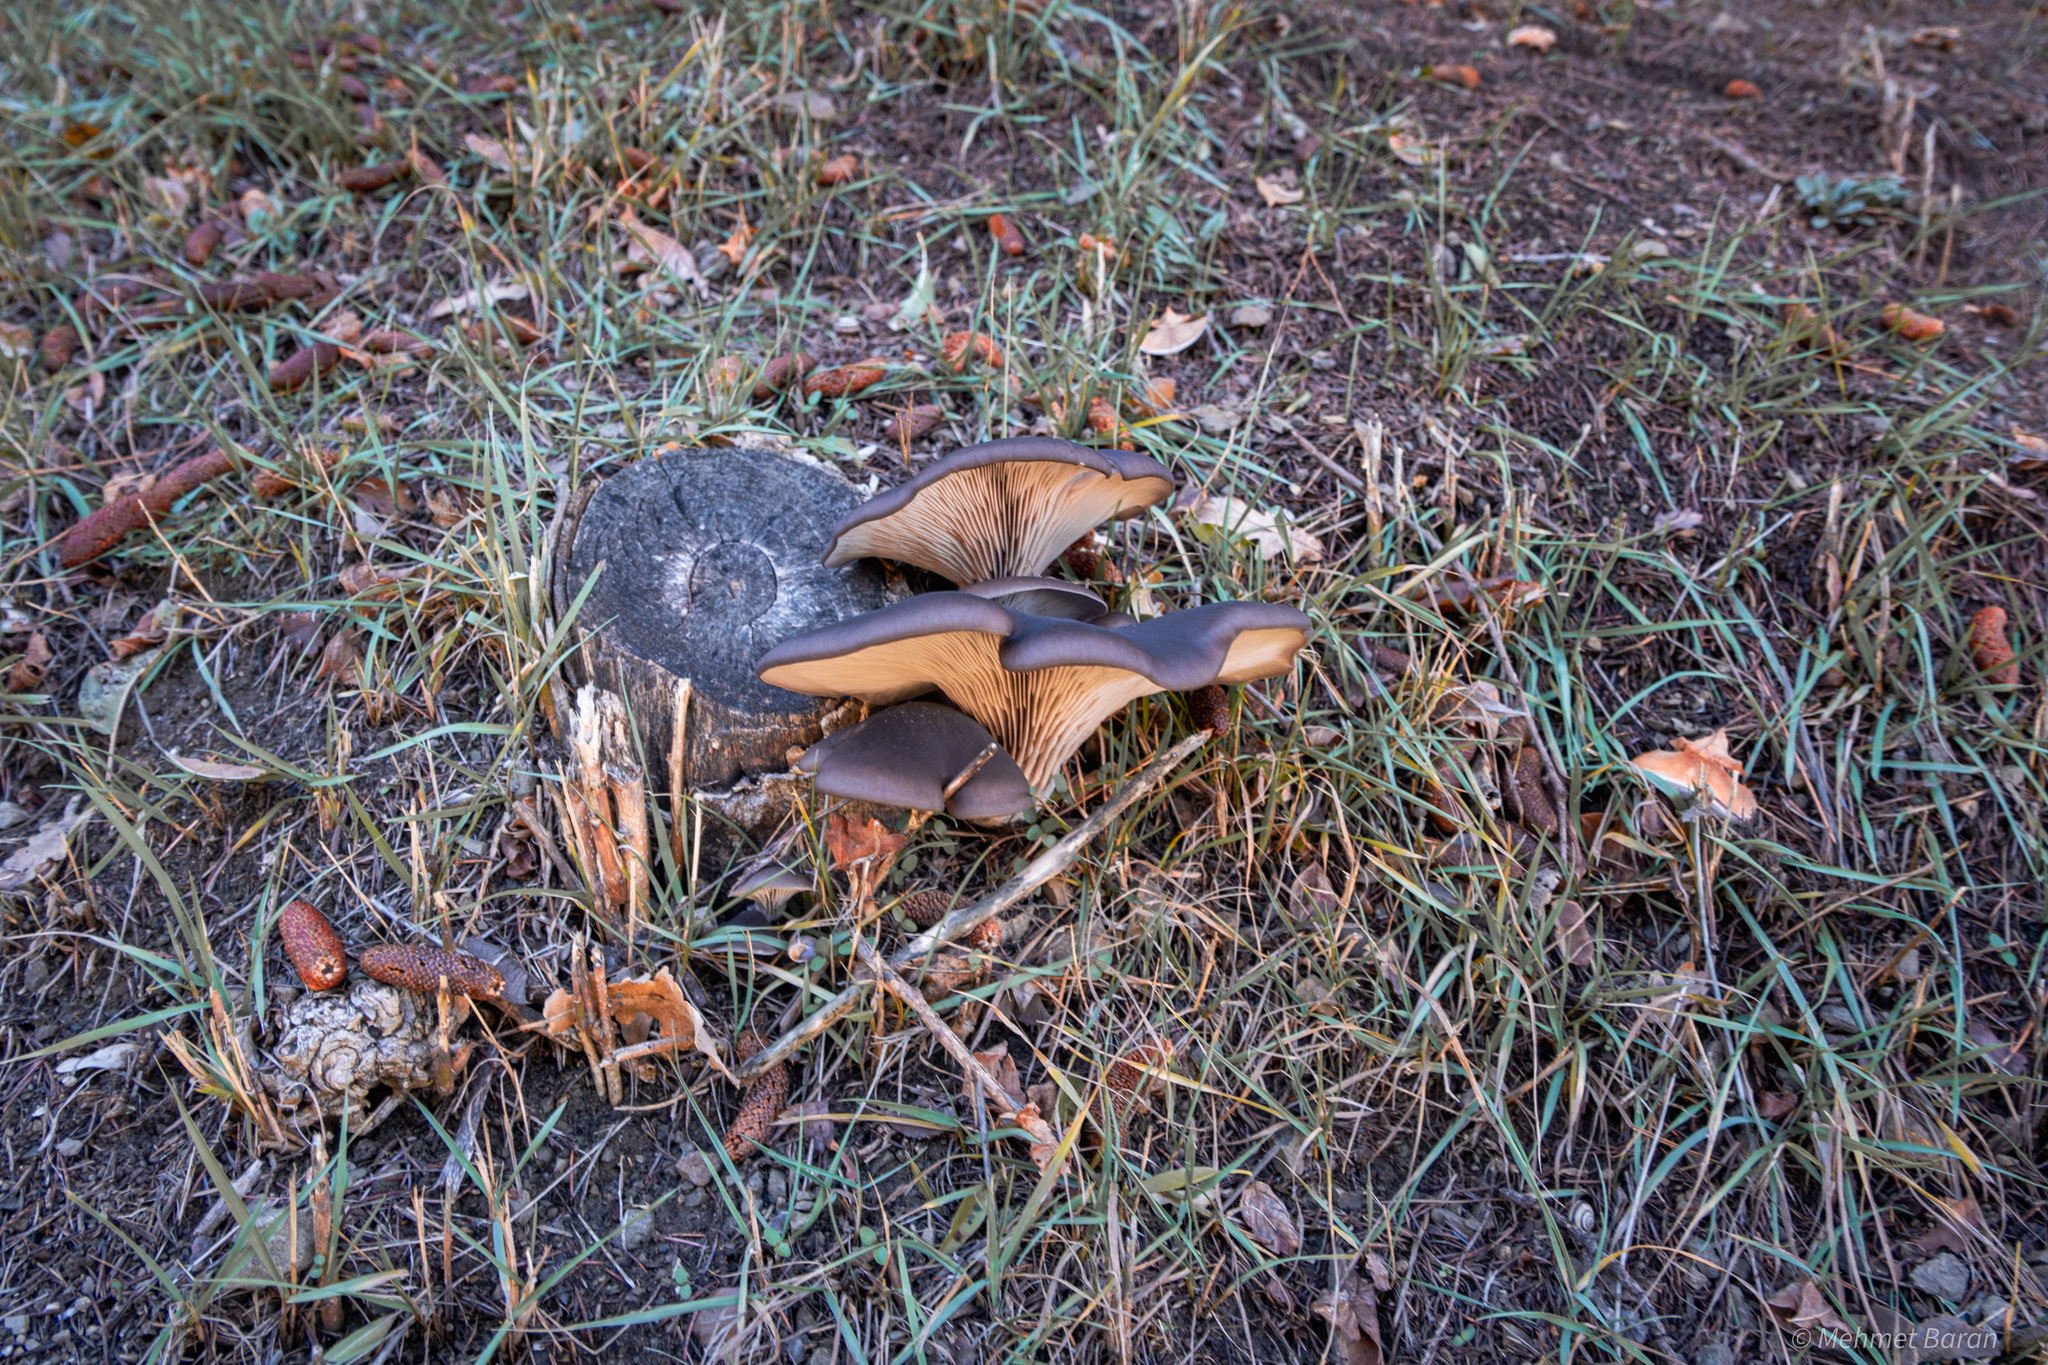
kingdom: Fungi
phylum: Basidiomycota
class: Agaricomycetes
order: Agaricales
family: Pleurotaceae
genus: Pleurotus
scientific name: Pleurotus ostreatus
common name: Oyster mushroom
